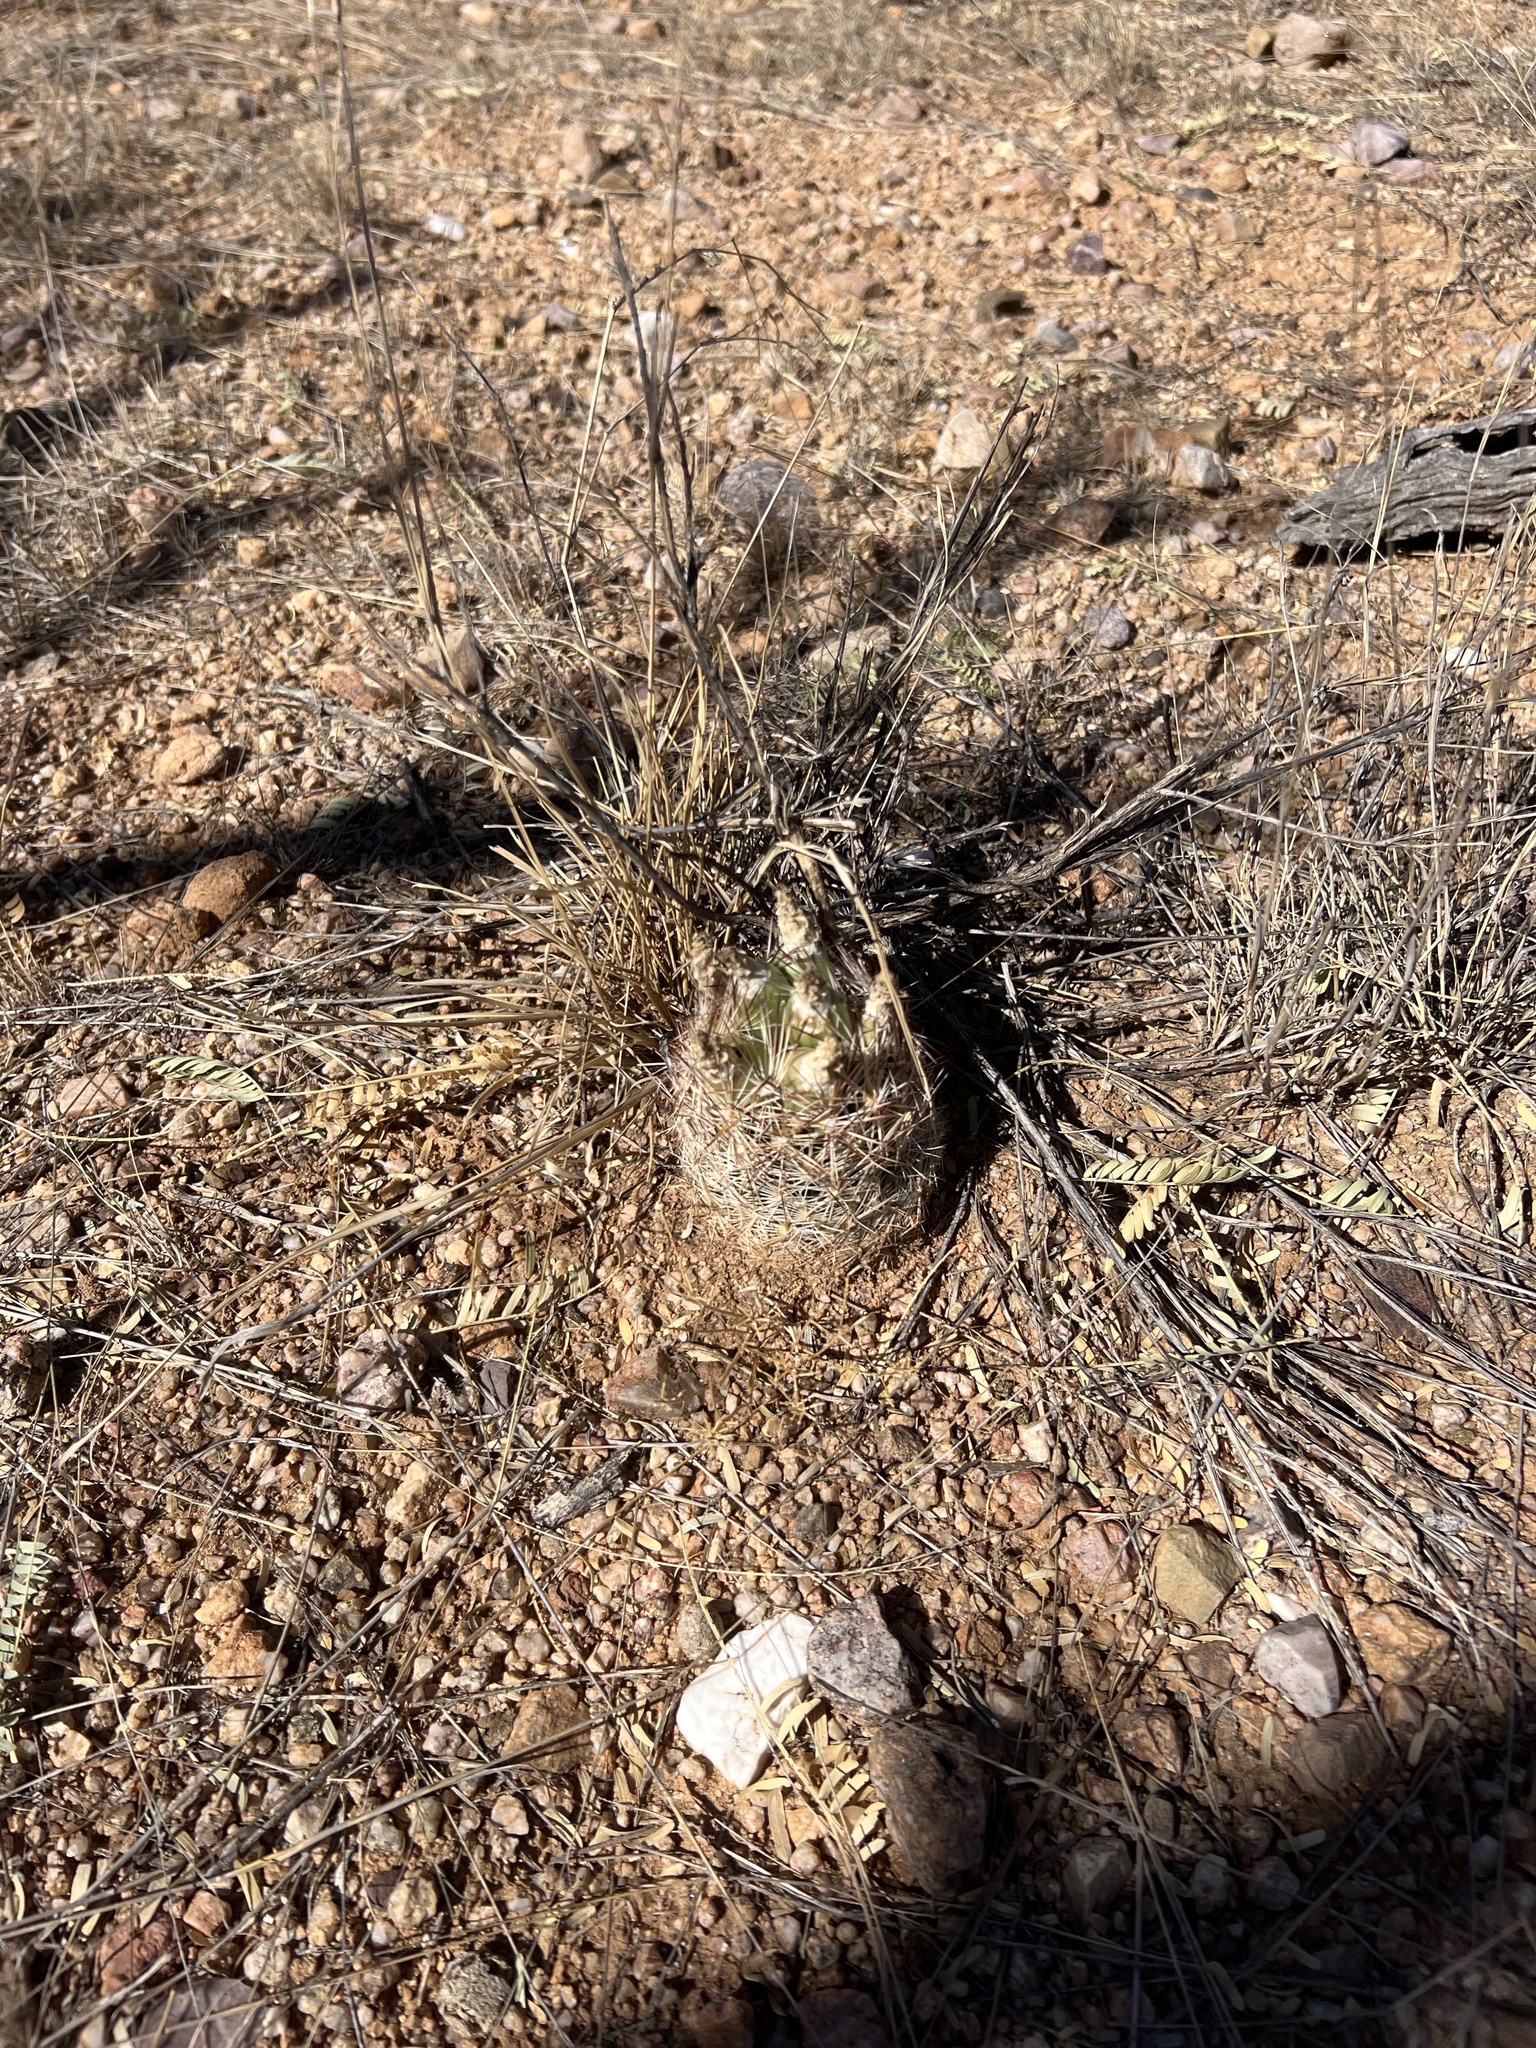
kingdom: Plantae
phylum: Tracheophyta
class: Magnoliopsida
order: Caryophyllales
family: Cactaceae
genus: Sclerocactus
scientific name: Sclerocactus intertextus
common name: White fish-hook cactus
